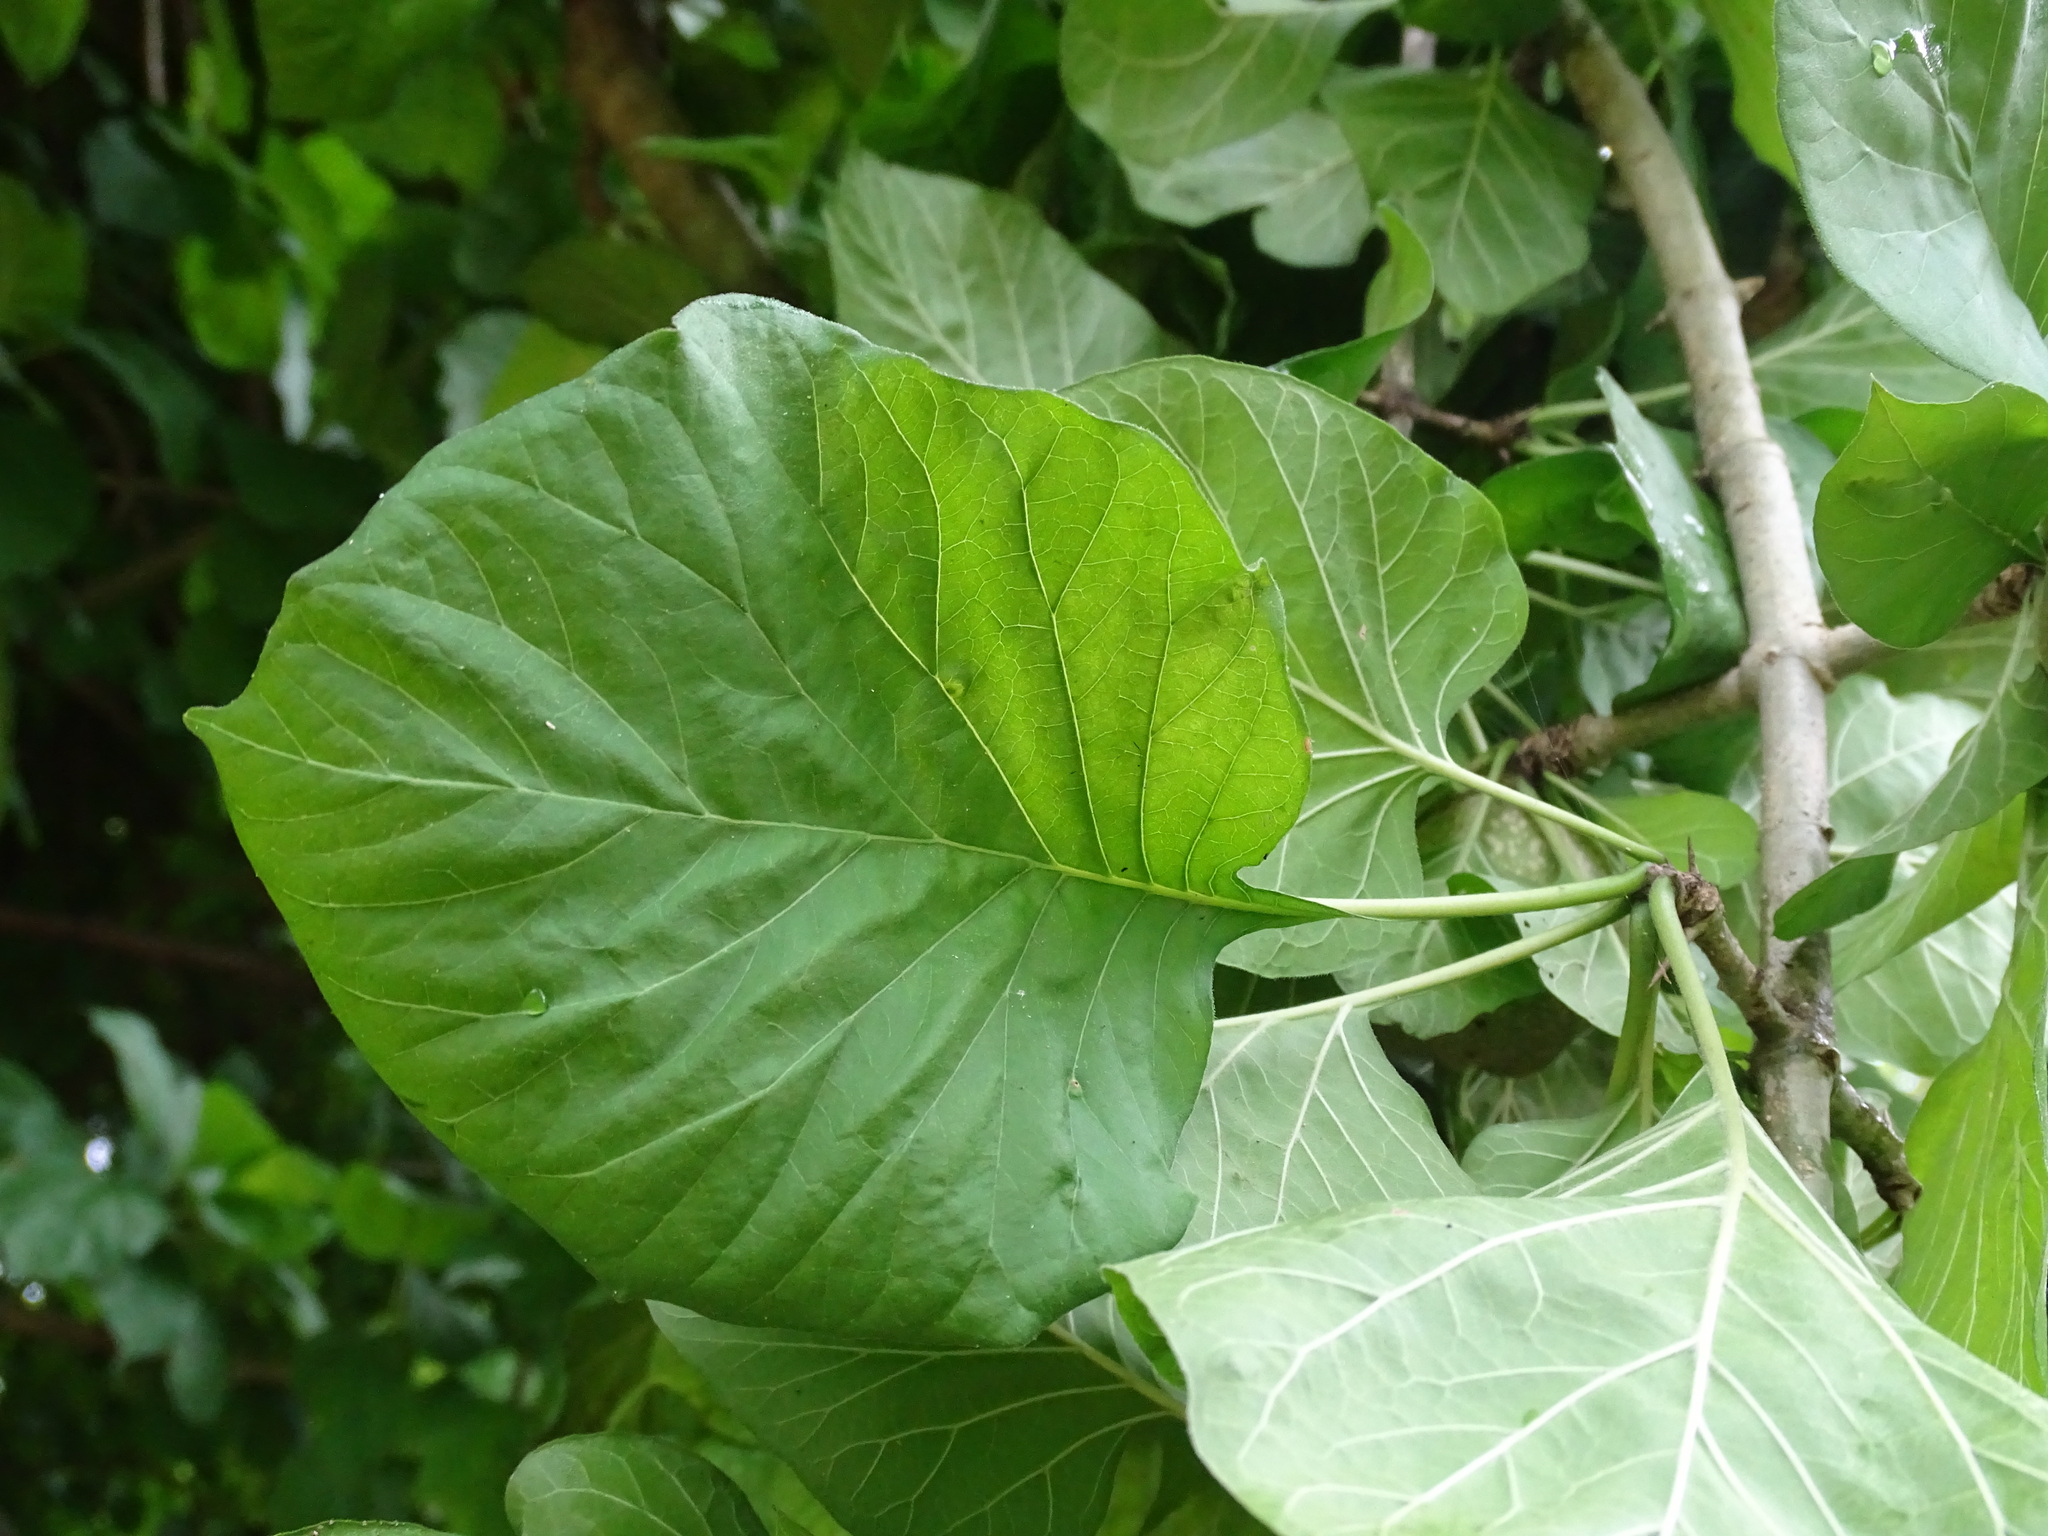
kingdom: Plantae
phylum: Tracheophyta
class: Magnoliopsida
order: Gentianales
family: Rubiaceae
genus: Randia
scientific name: Randia tetracantha
